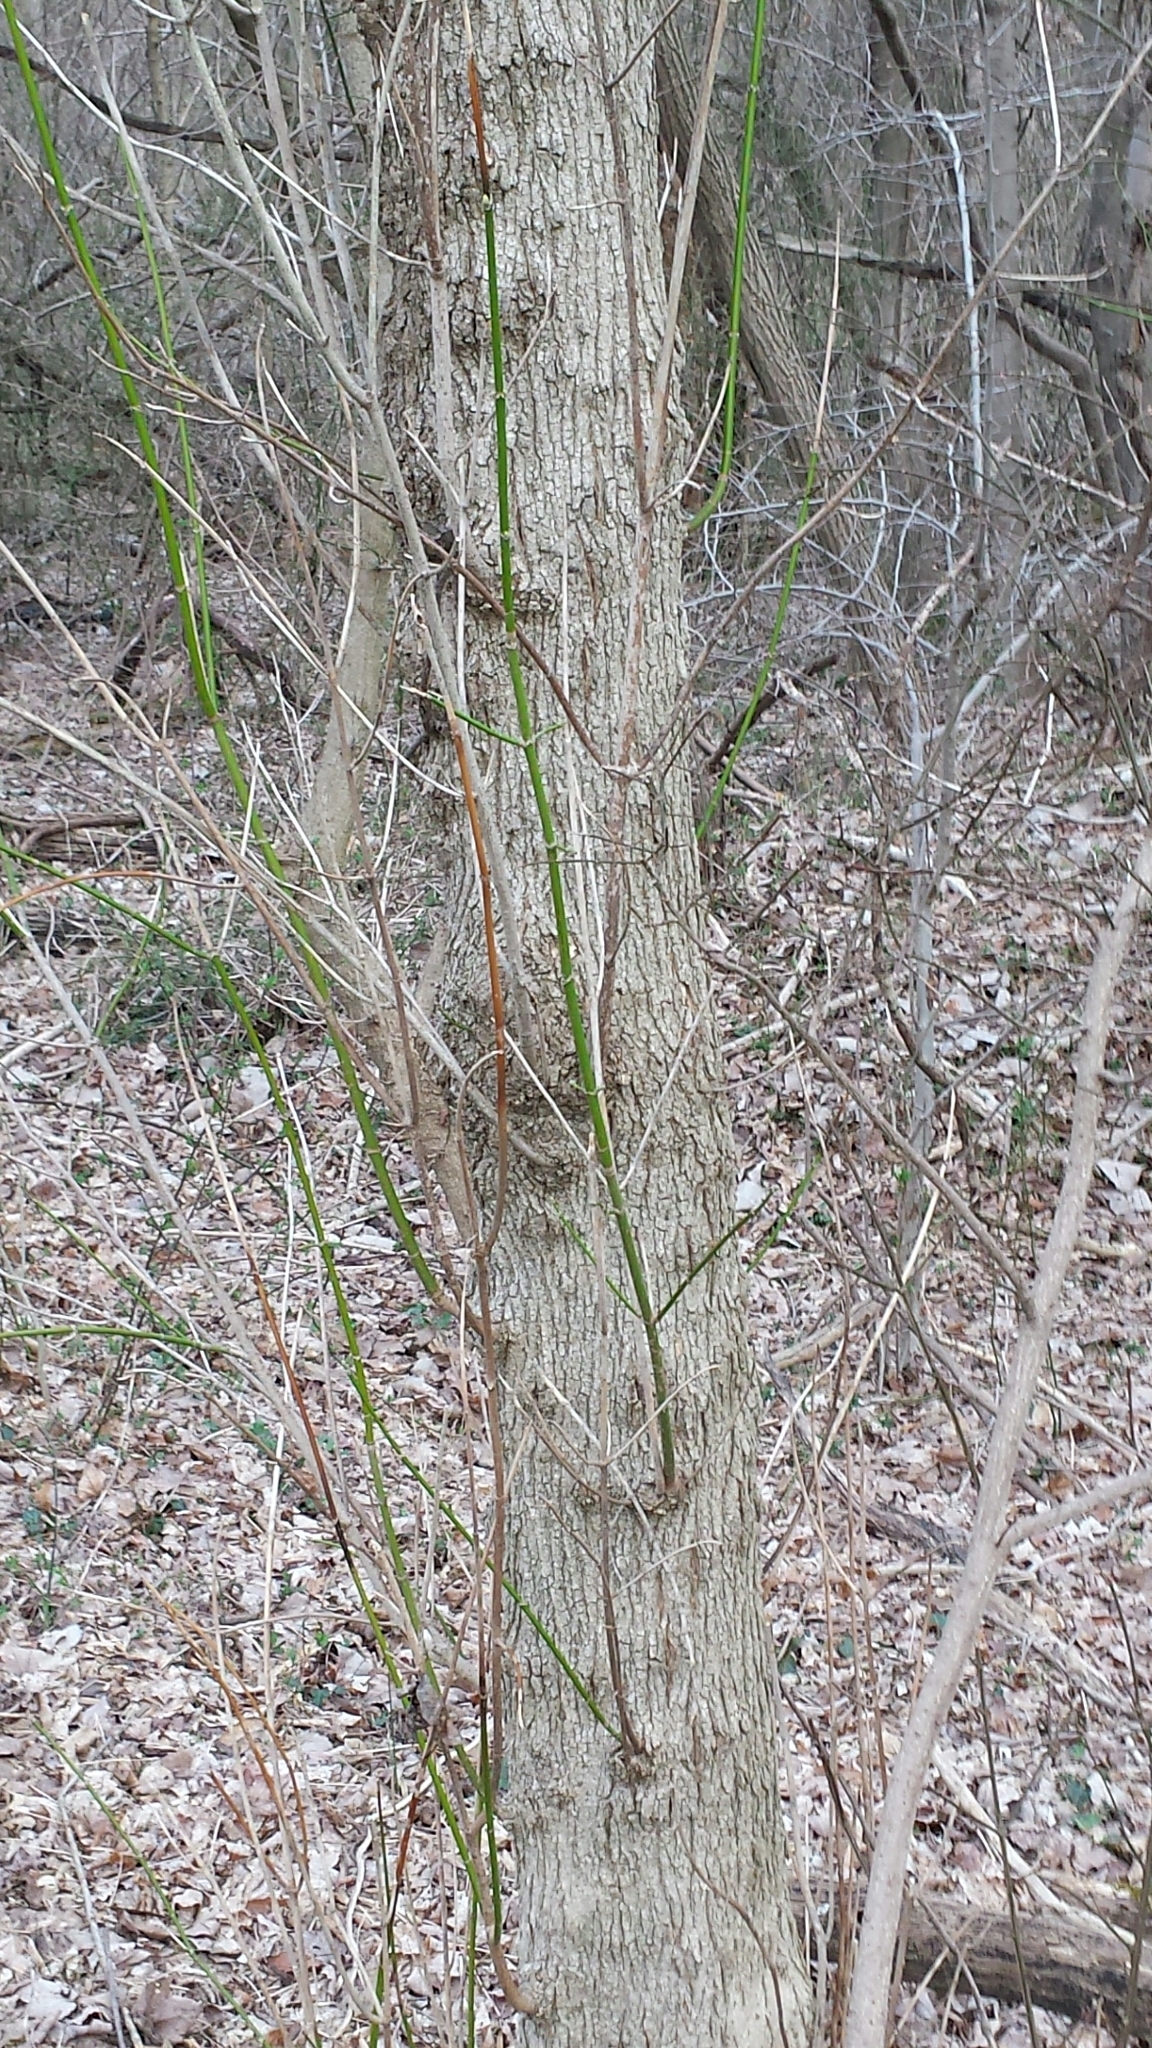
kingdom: Plantae
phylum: Tracheophyta
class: Magnoliopsida
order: Sapindales
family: Sapindaceae
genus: Acer
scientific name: Acer negundo
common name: Ashleaf maple
